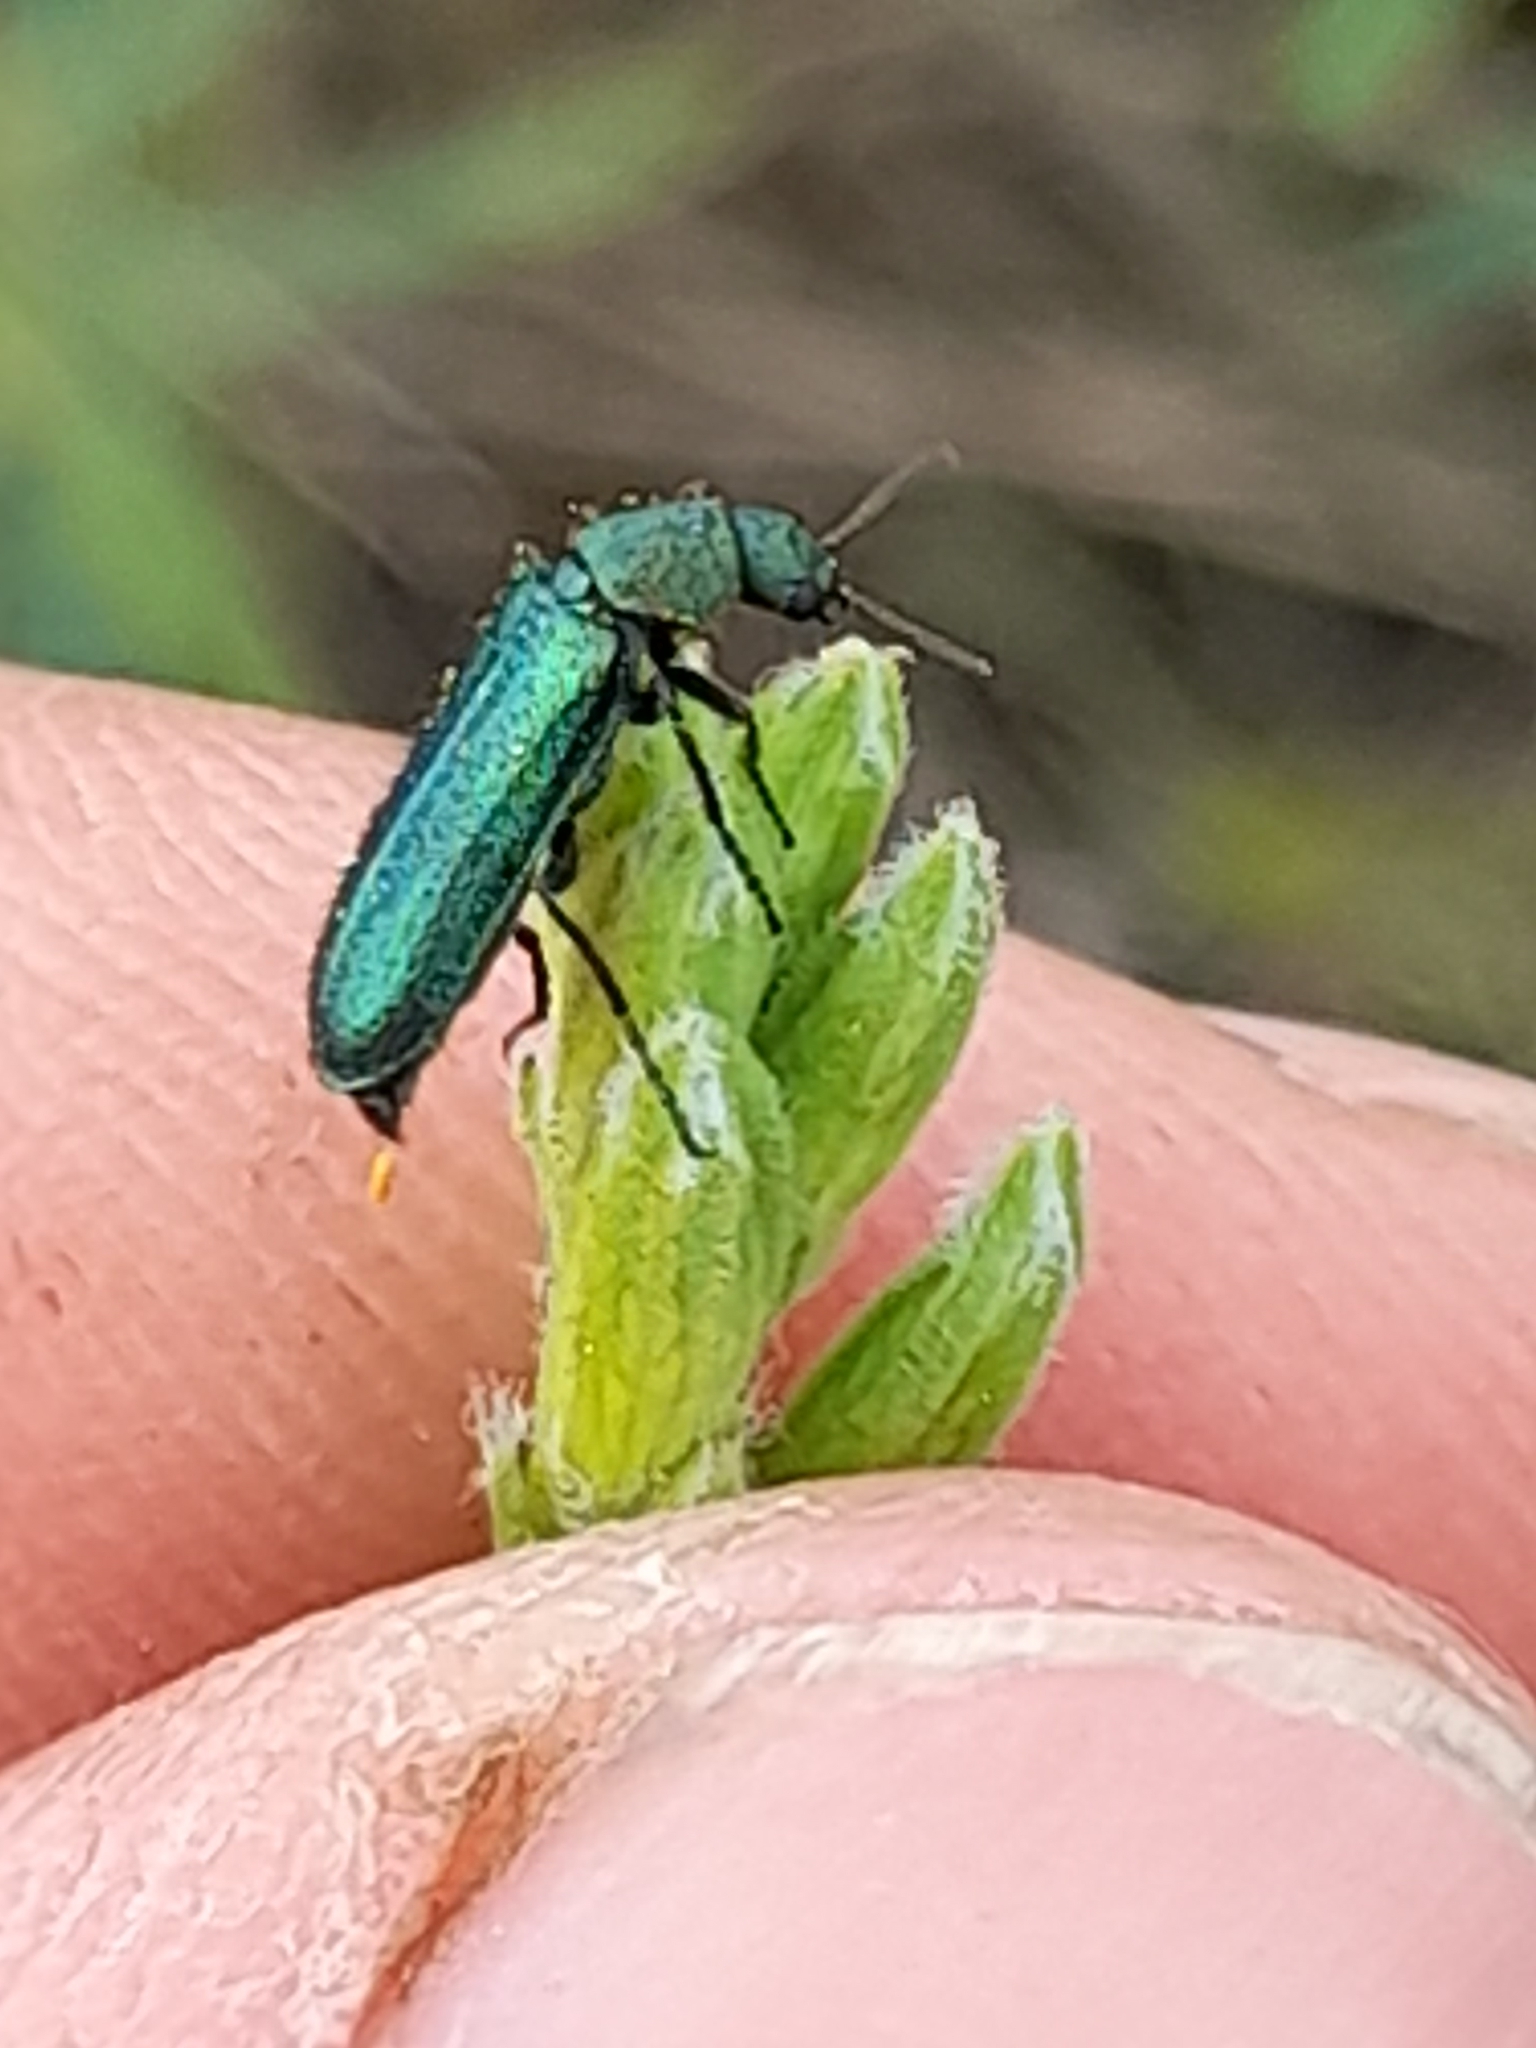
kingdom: Animalia
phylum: Arthropoda
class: Insecta
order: Coleoptera
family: Dasytidae
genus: Psilothrix
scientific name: Psilothrix viridicoerulea
